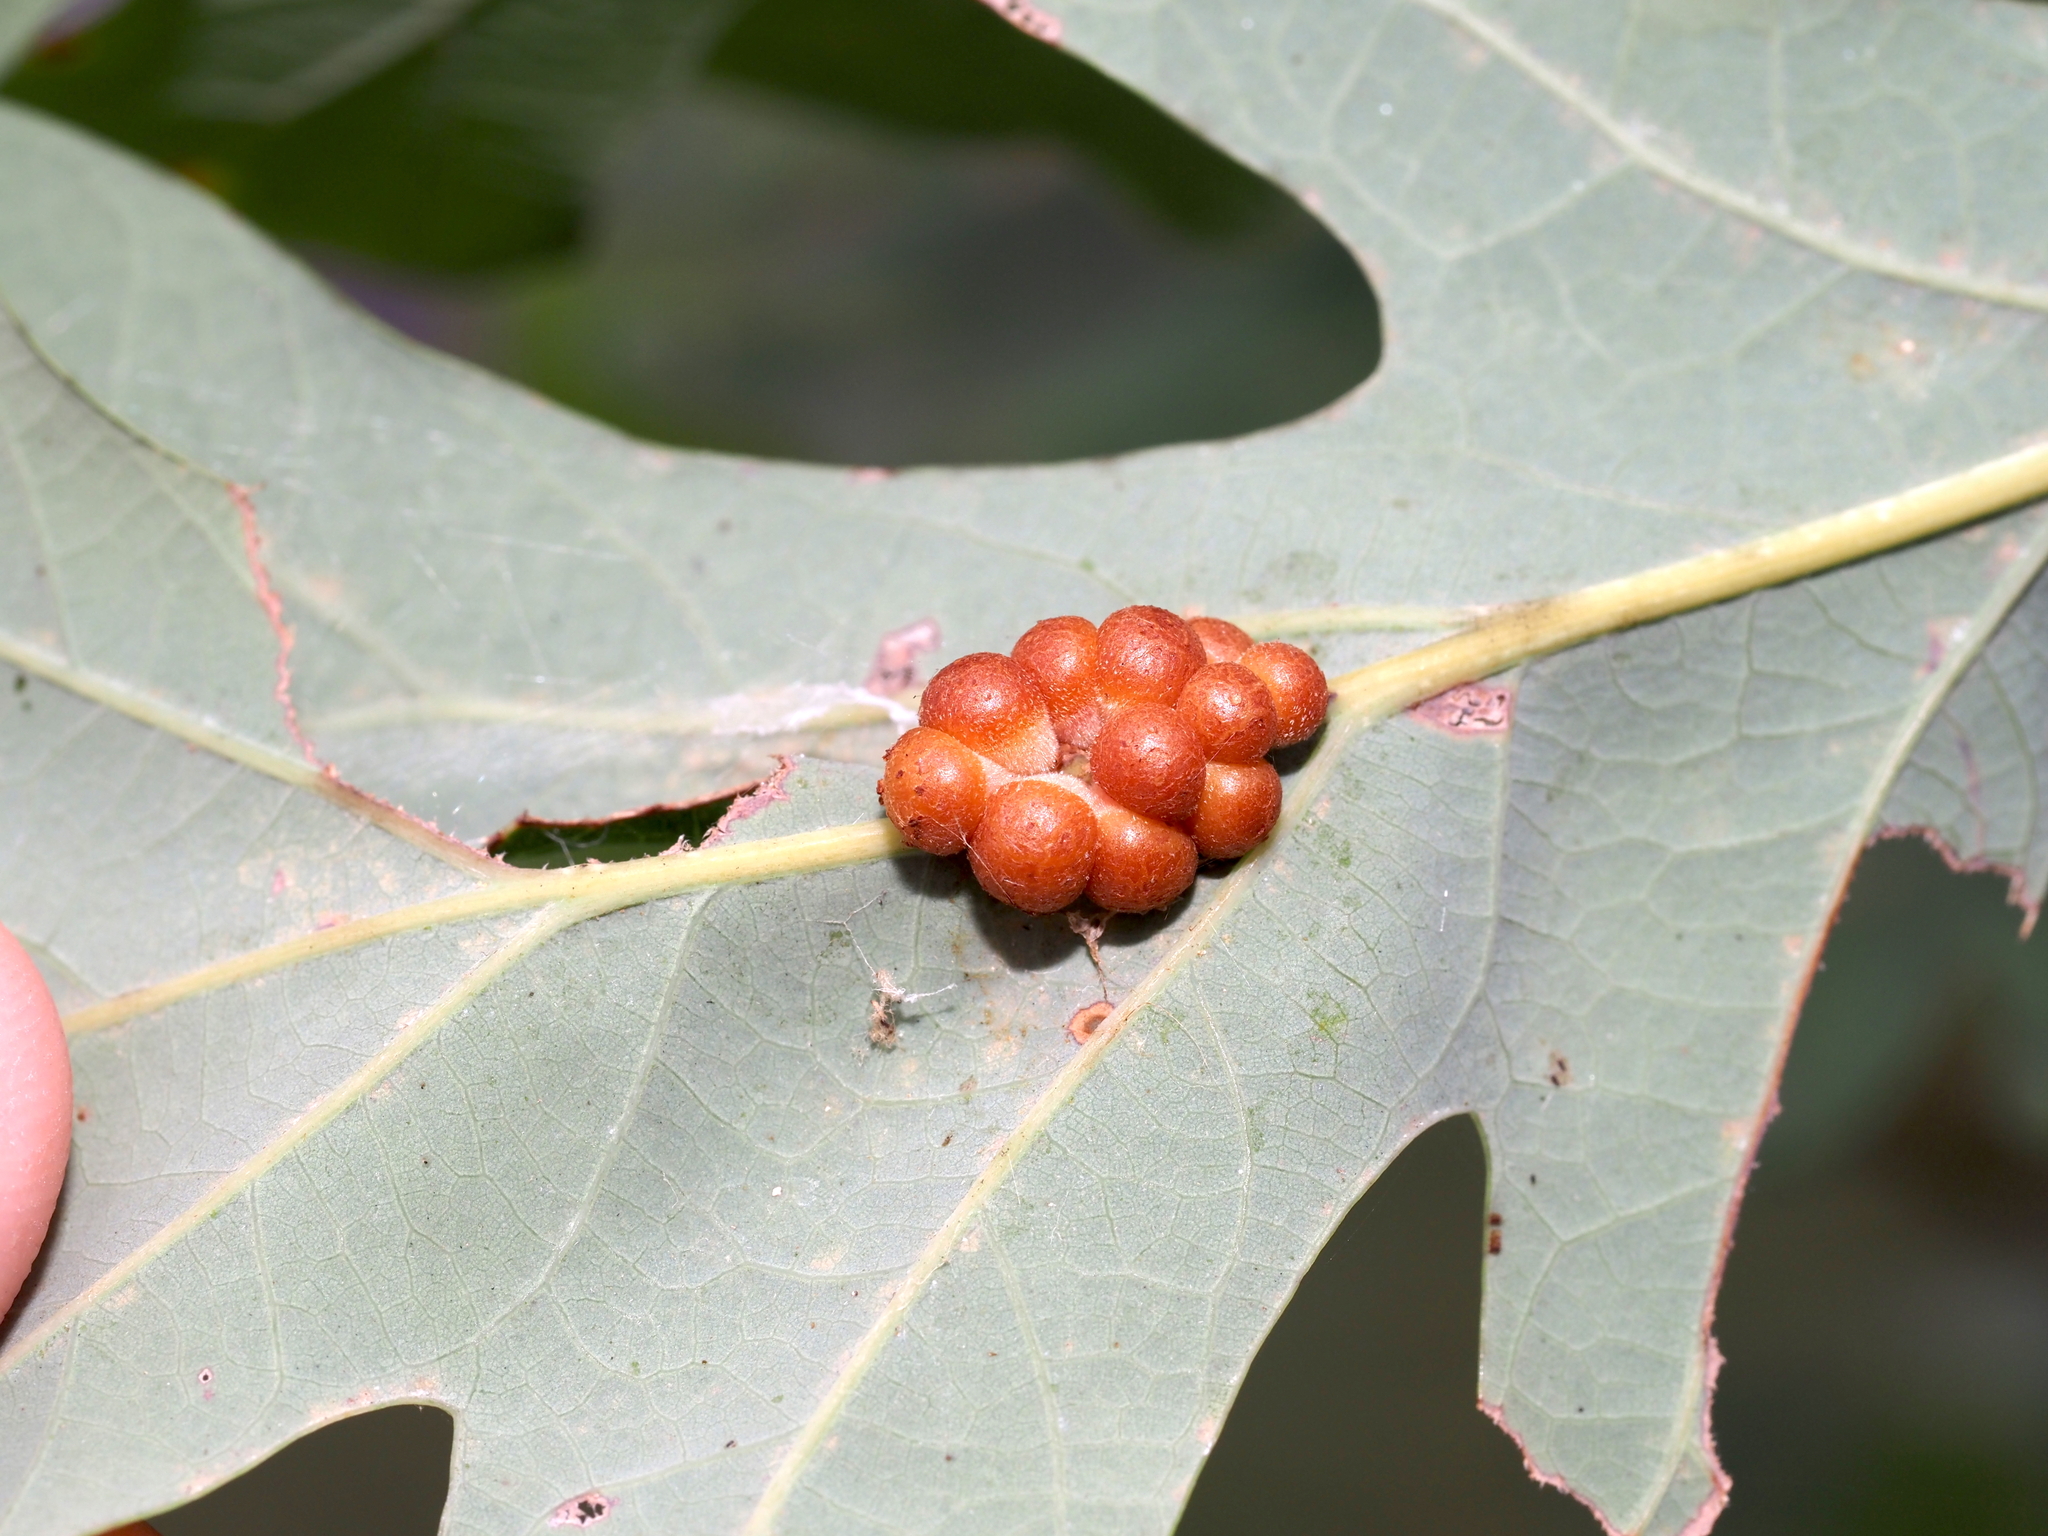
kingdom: Animalia
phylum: Arthropoda
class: Insecta
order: Hymenoptera
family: Cynipidae
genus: Andricus
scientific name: Andricus
